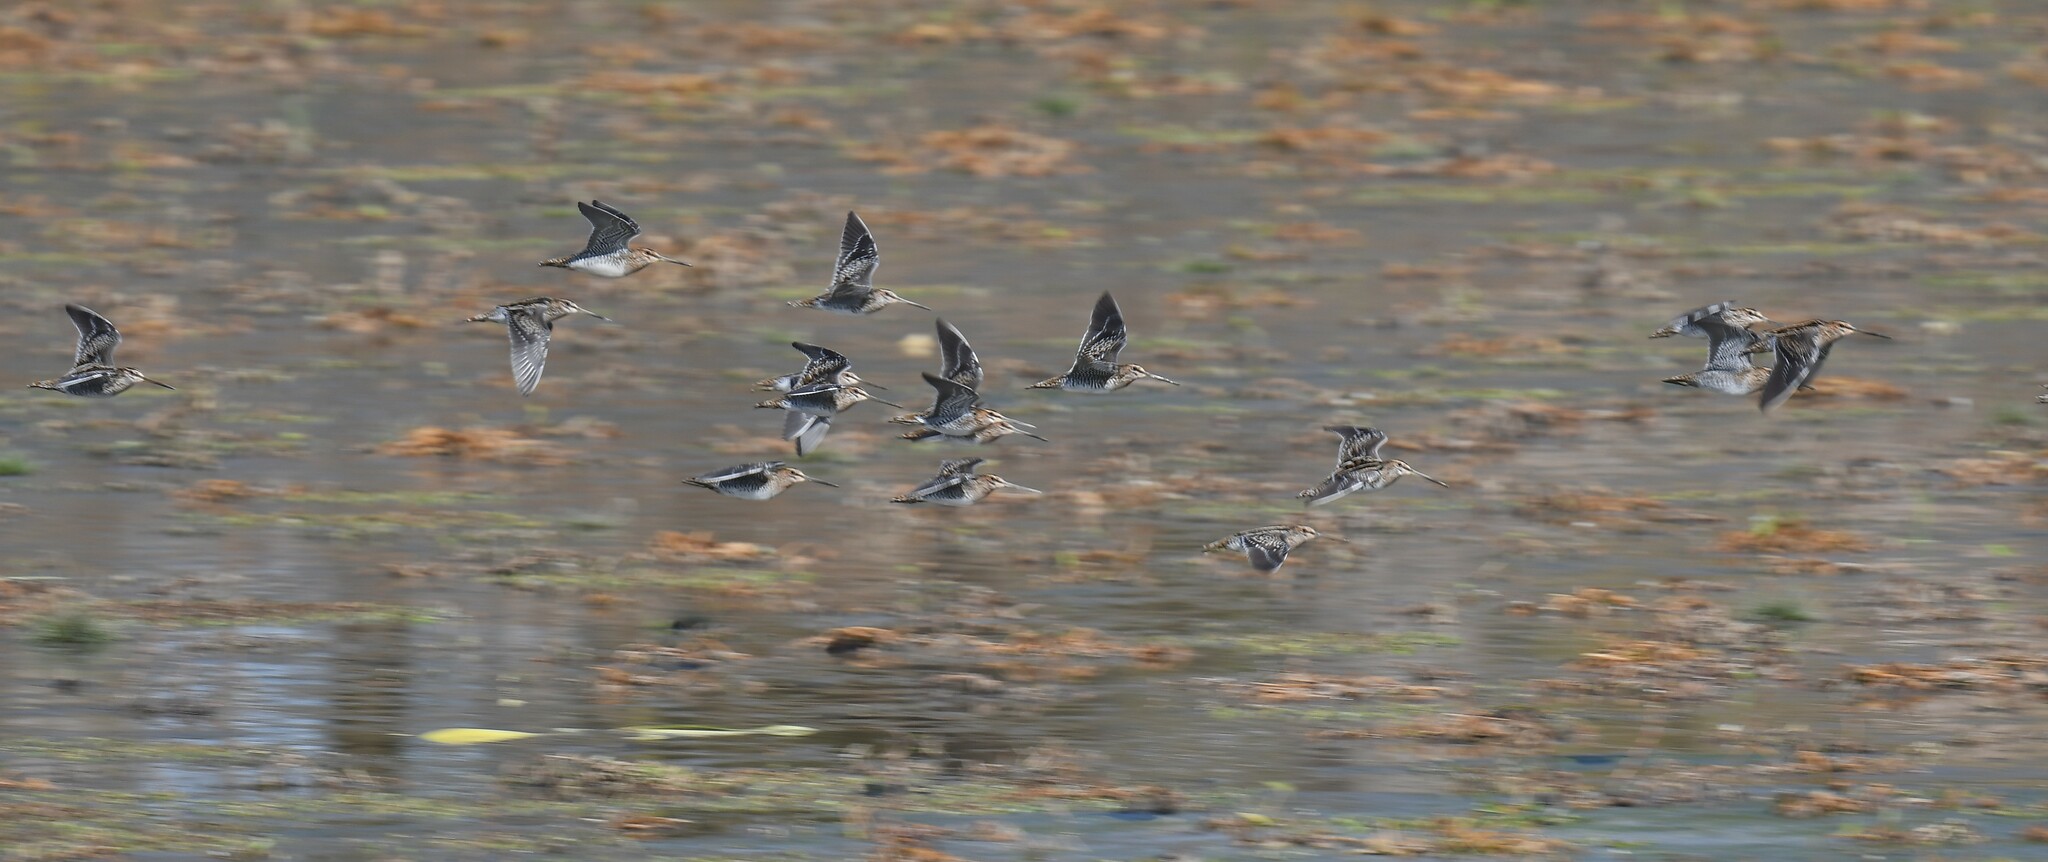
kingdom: Animalia
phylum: Chordata
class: Aves
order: Charadriiformes
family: Scolopacidae
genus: Gallinago
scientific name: Gallinago delicata
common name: Wilson's snipe
